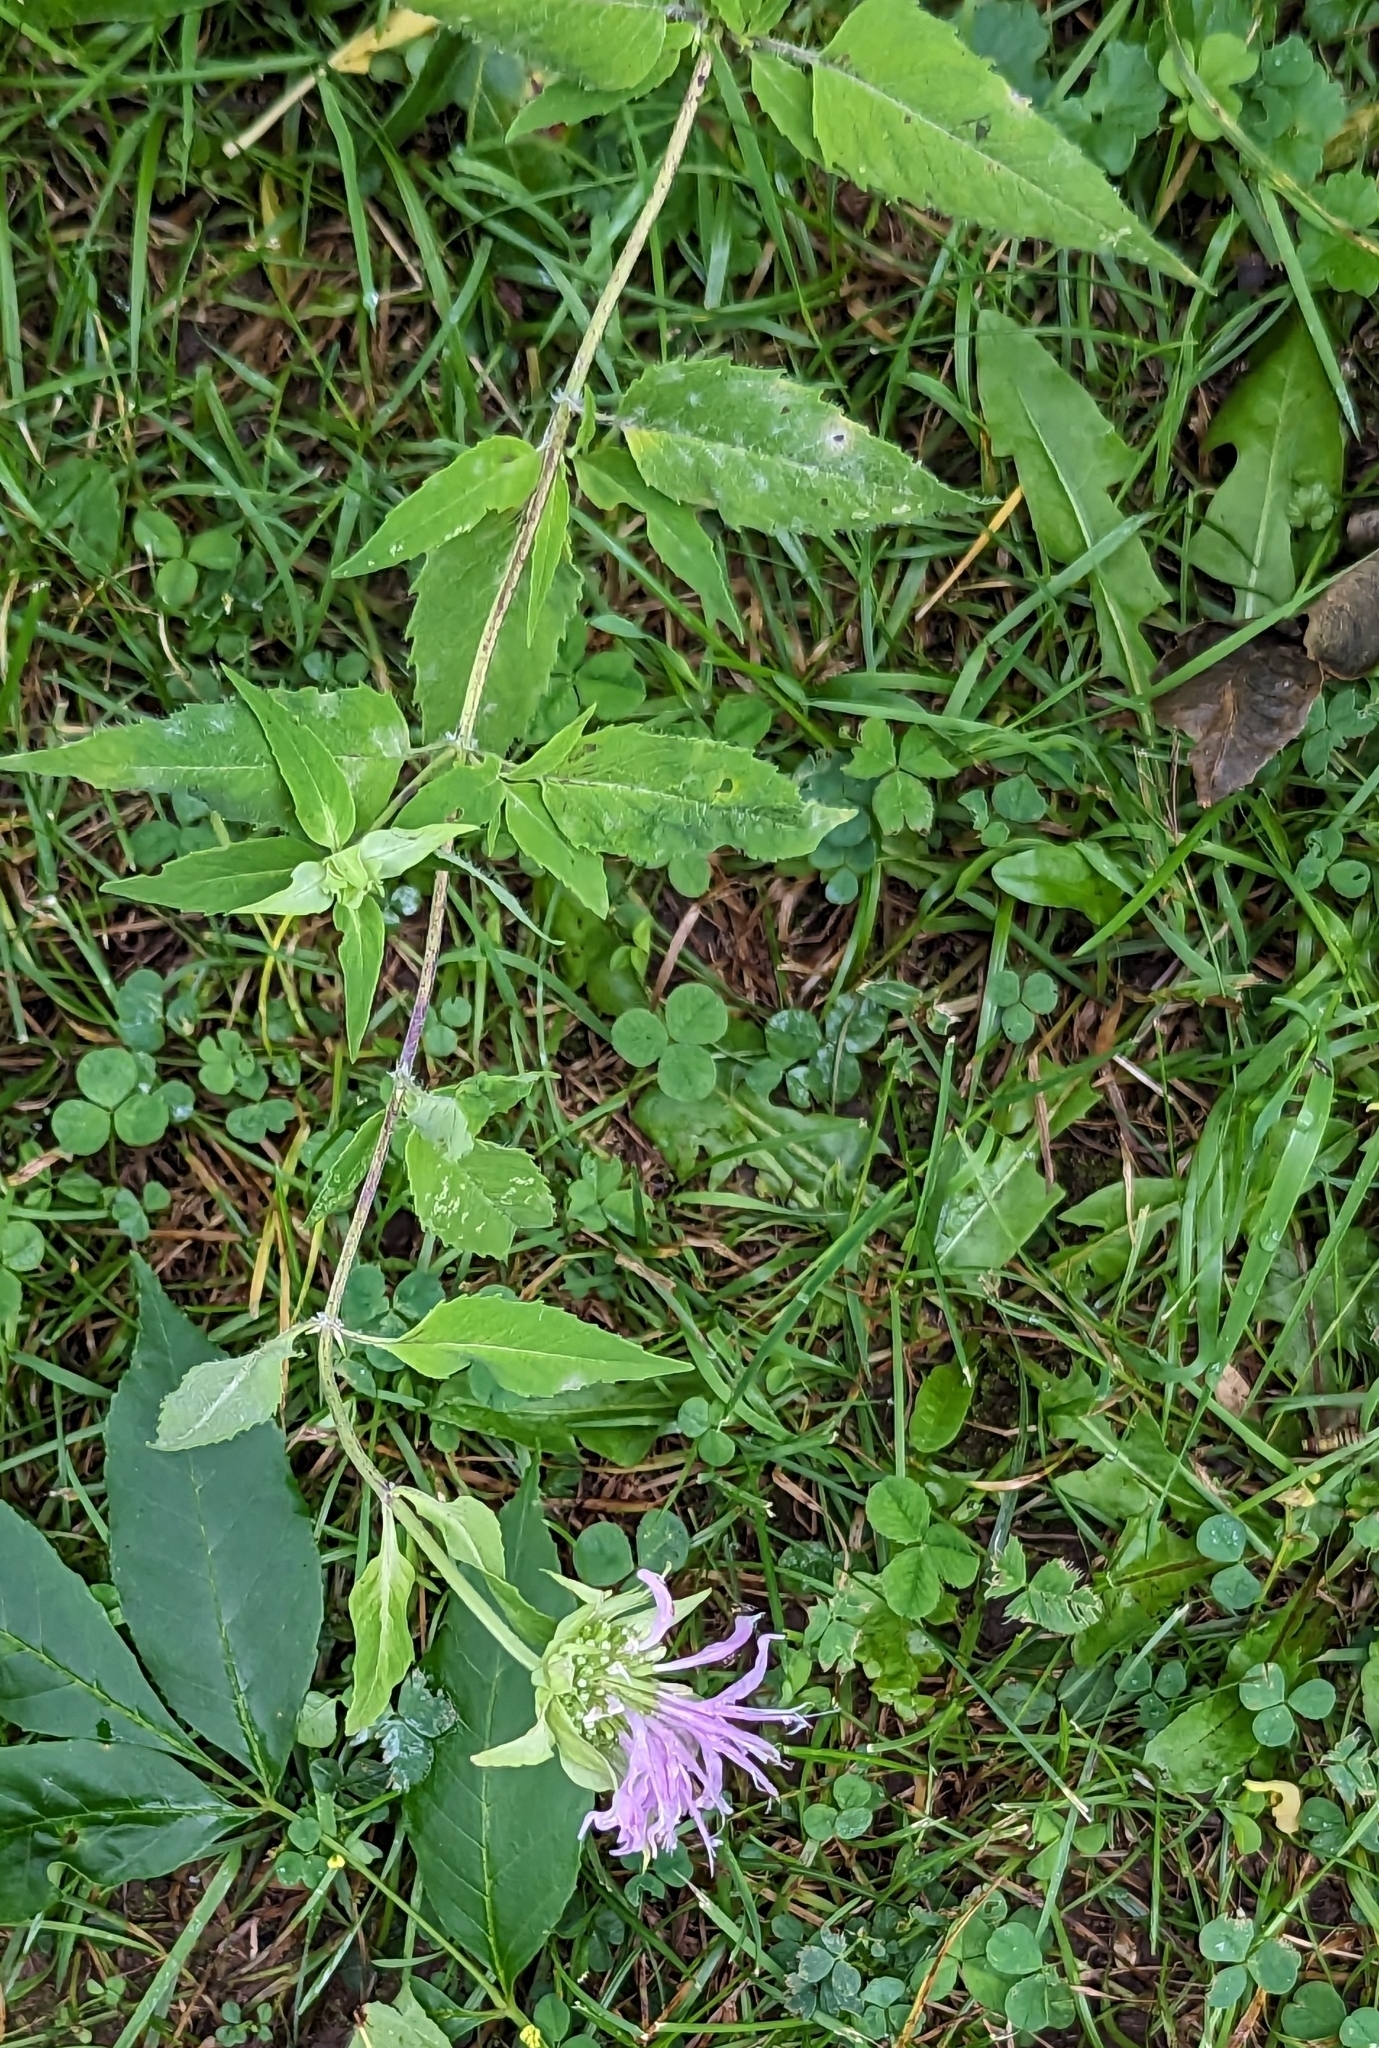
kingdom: Plantae
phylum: Tracheophyta
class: Magnoliopsida
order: Lamiales
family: Lamiaceae
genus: Monarda
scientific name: Monarda fistulosa
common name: Purple beebalm
